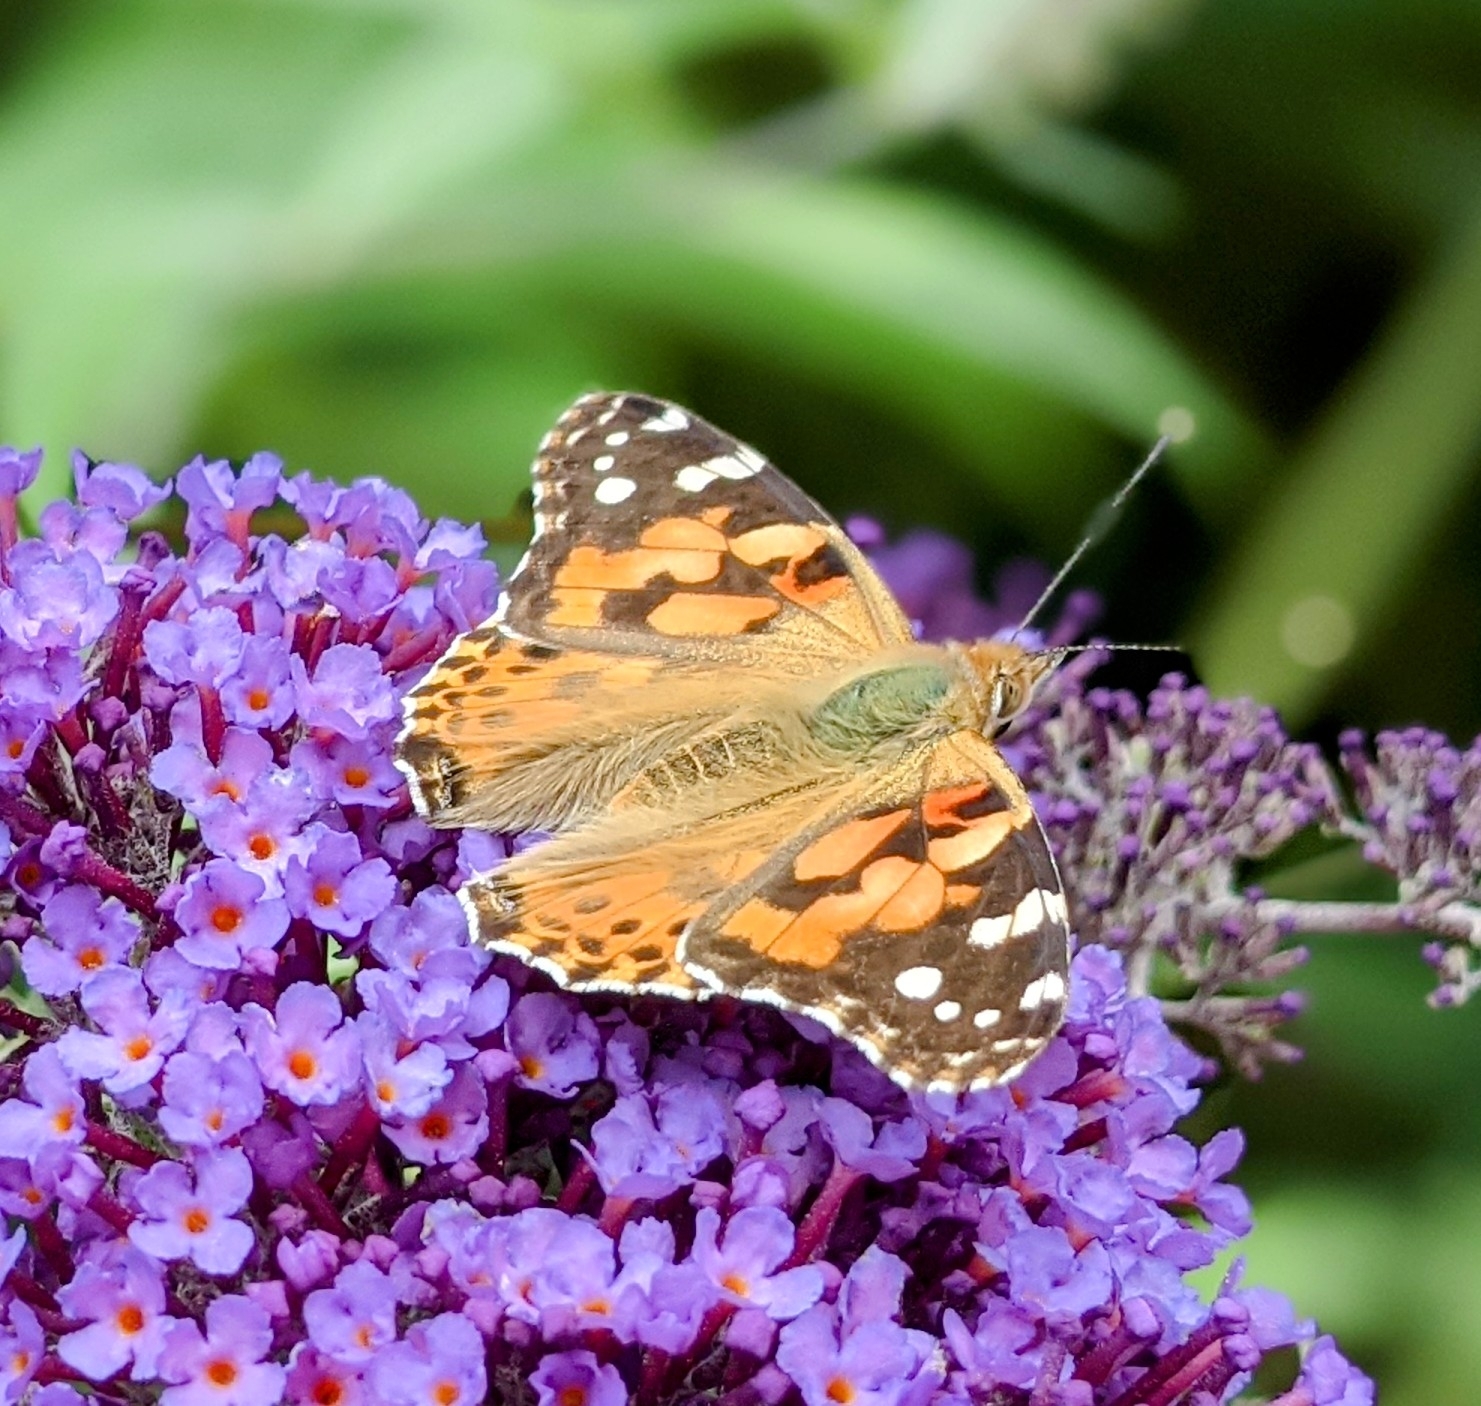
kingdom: Animalia
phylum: Arthropoda
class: Insecta
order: Lepidoptera
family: Nymphalidae
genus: Vanessa
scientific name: Vanessa cardui
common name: Painted lady
